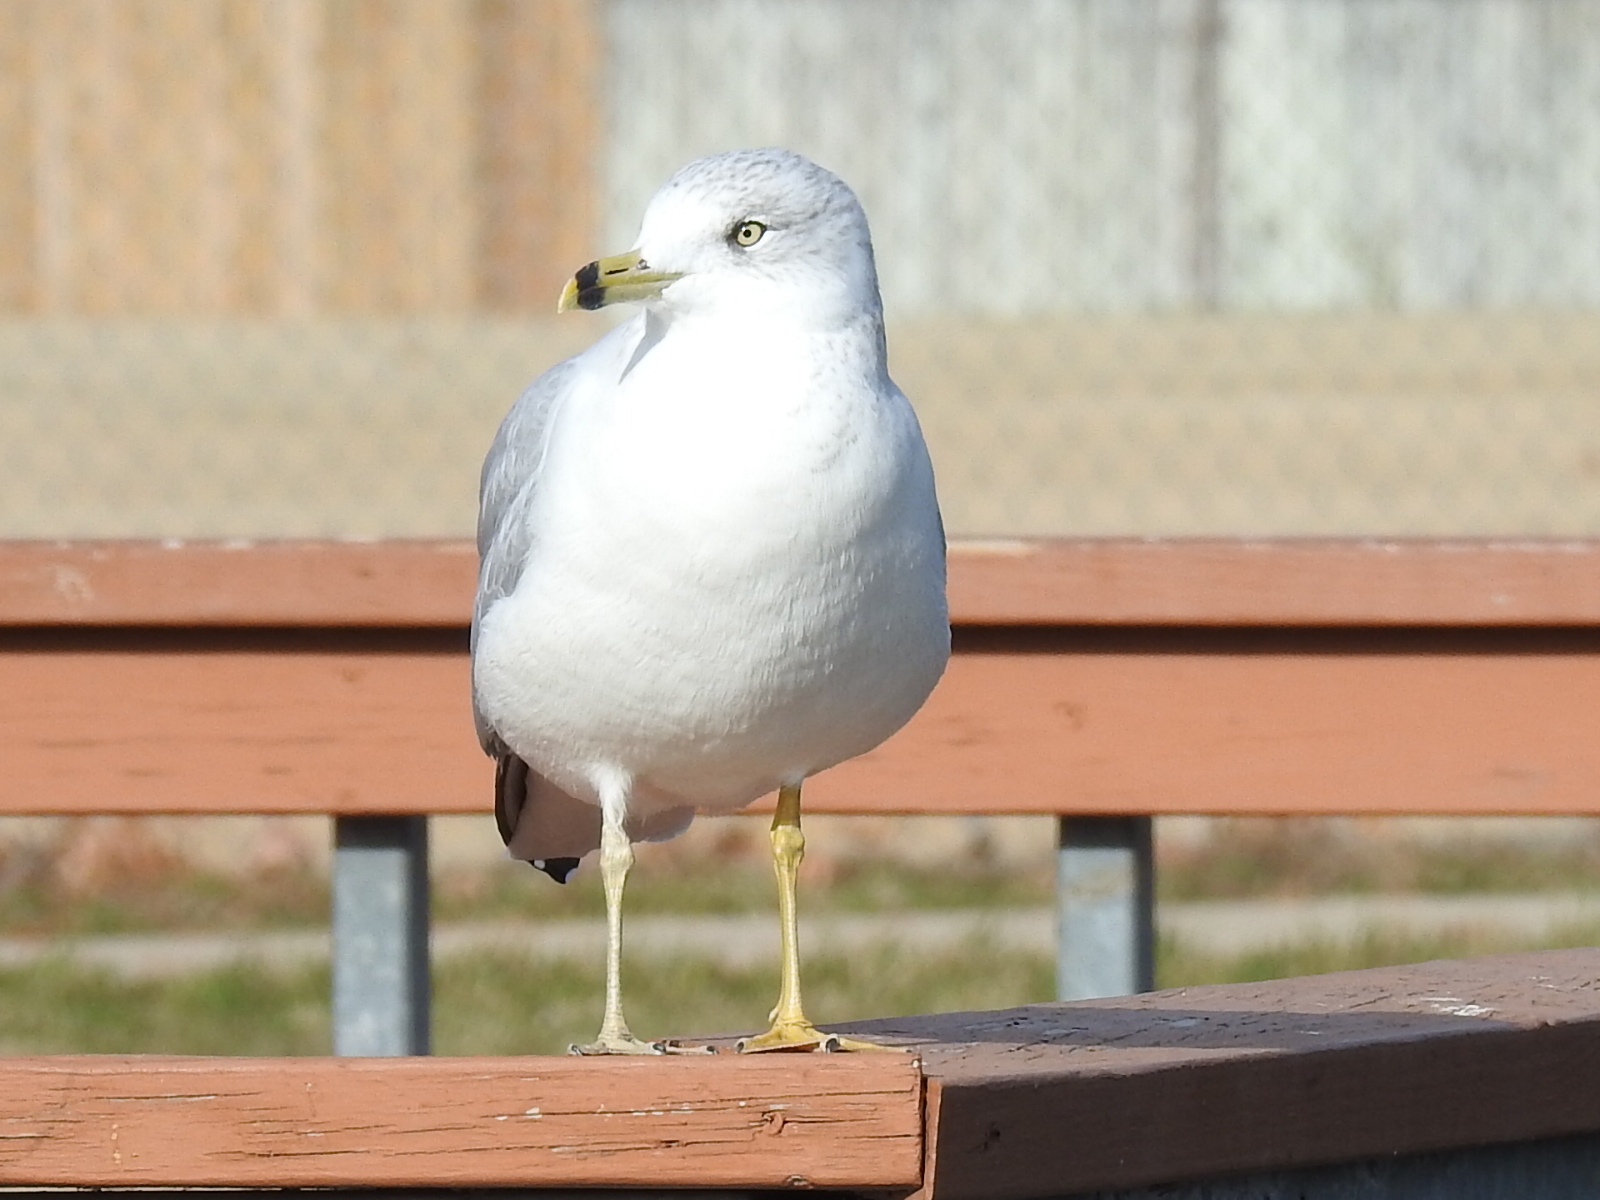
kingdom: Animalia
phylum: Chordata
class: Aves
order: Charadriiformes
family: Laridae
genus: Larus
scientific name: Larus delawarensis
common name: Ring-billed gull
